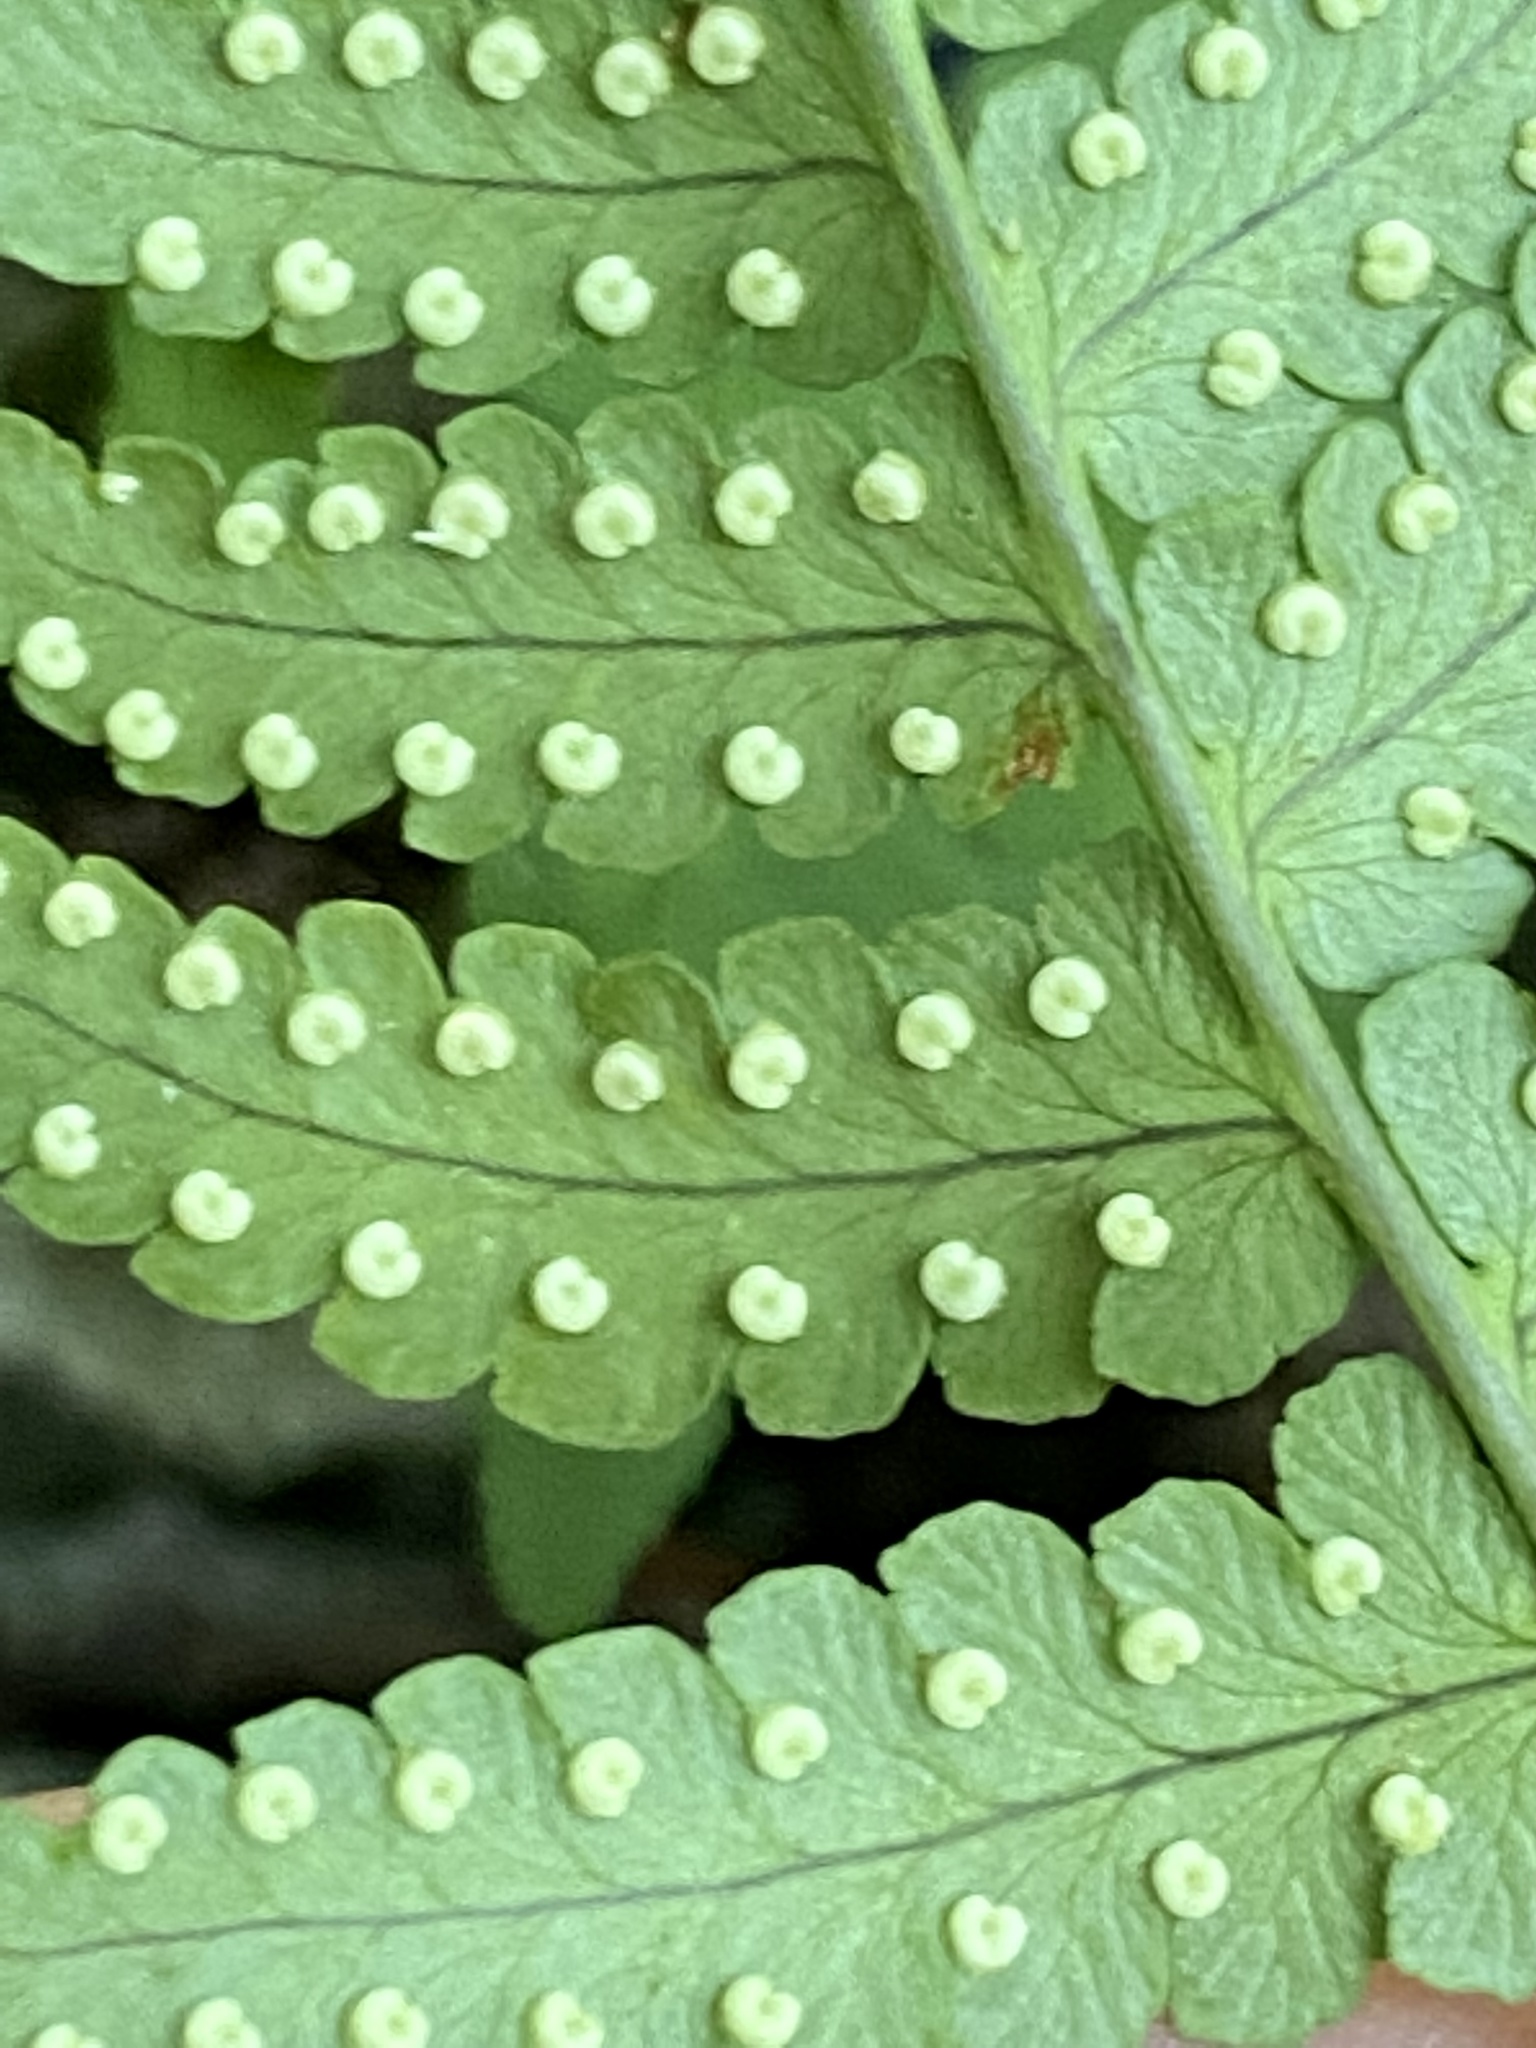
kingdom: Plantae
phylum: Tracheophyta
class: Polypodiopsida
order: Polypodiales
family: Dryopteridaceae
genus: Dryopteris
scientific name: Dryopteris marginalis
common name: Marginal wood fern
